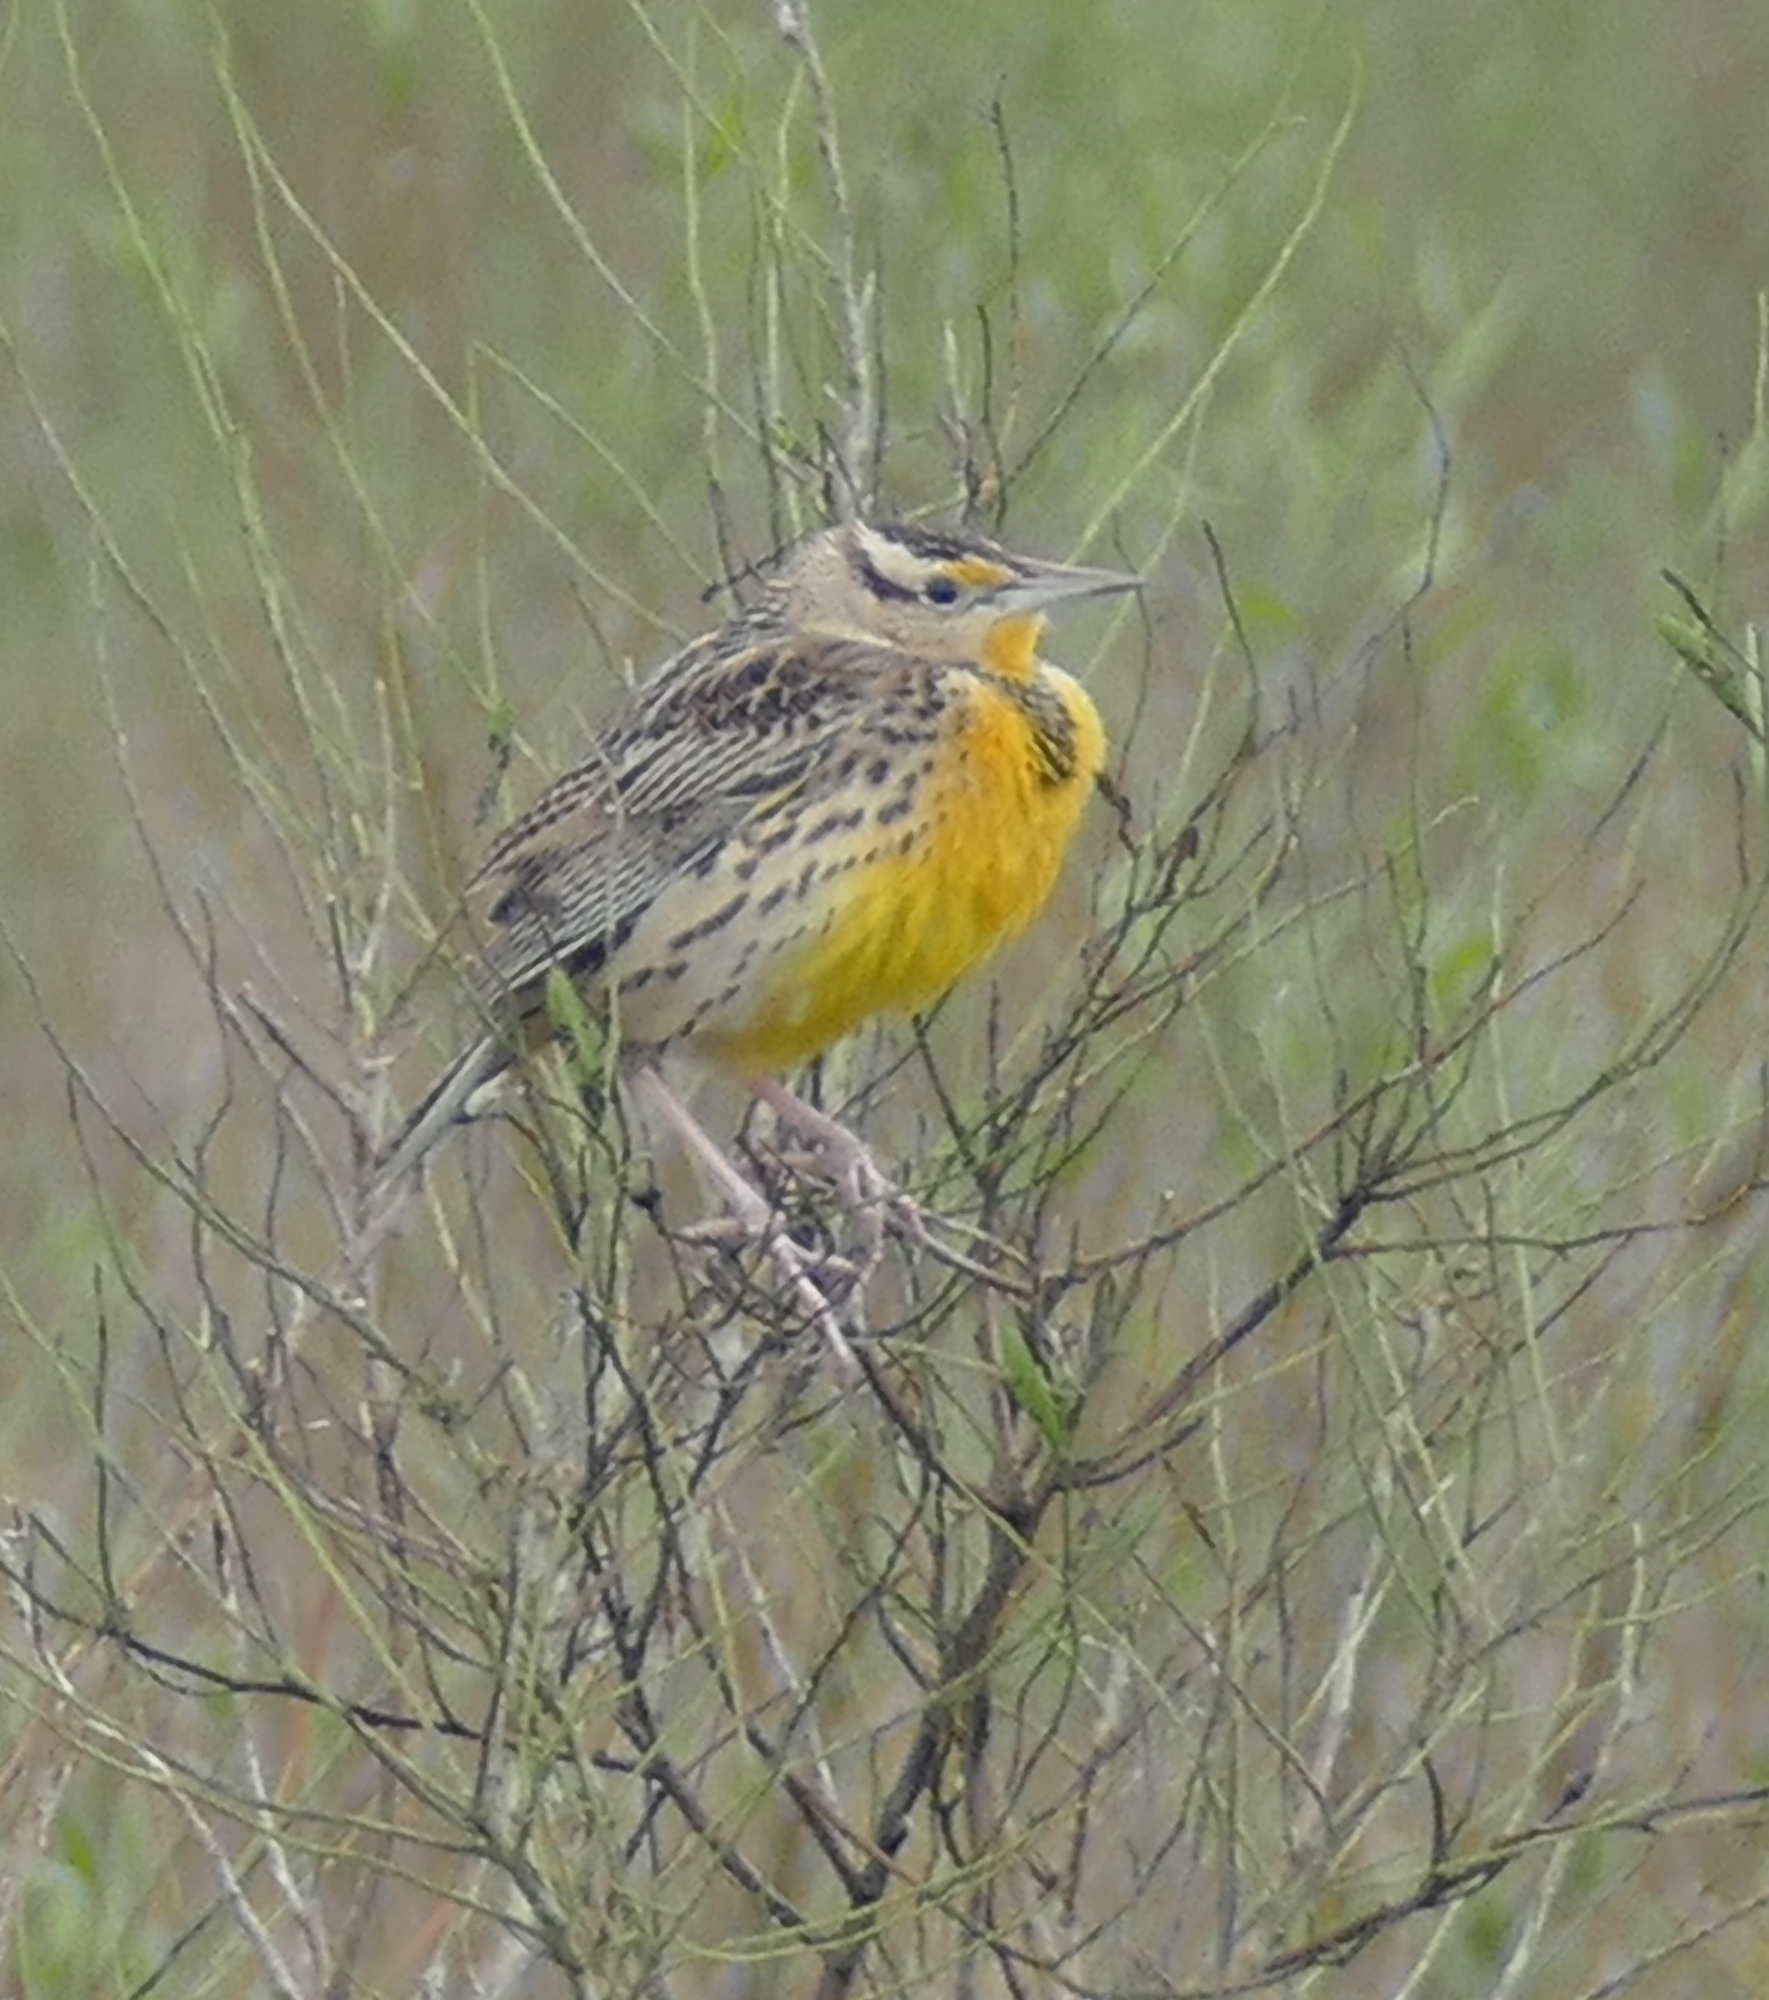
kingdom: Animalia
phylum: Chordata
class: Aves
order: Passeriformes
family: Icteridae
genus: Sturnella
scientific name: Sturnella magna
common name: Eastern meadowlark
